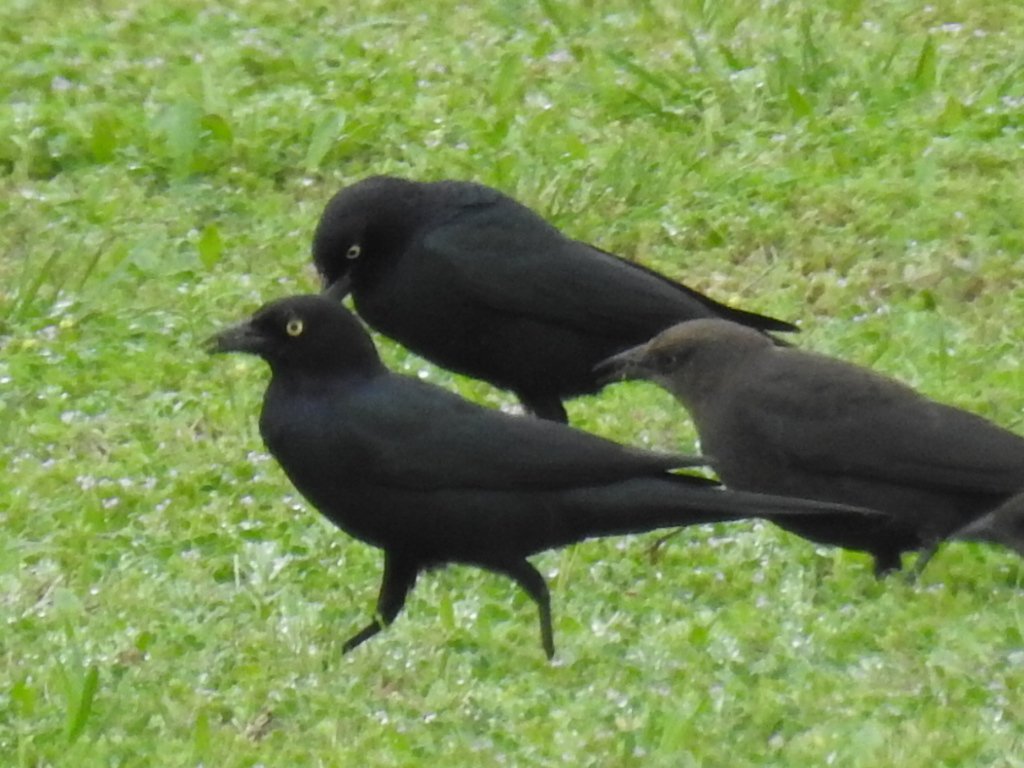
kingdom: Animalia
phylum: Chordata
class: Aves
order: Passeriformes
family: Icteridae
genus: Euphagus
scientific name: Euphagus cyanocephalus
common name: Brewer's blackbird
